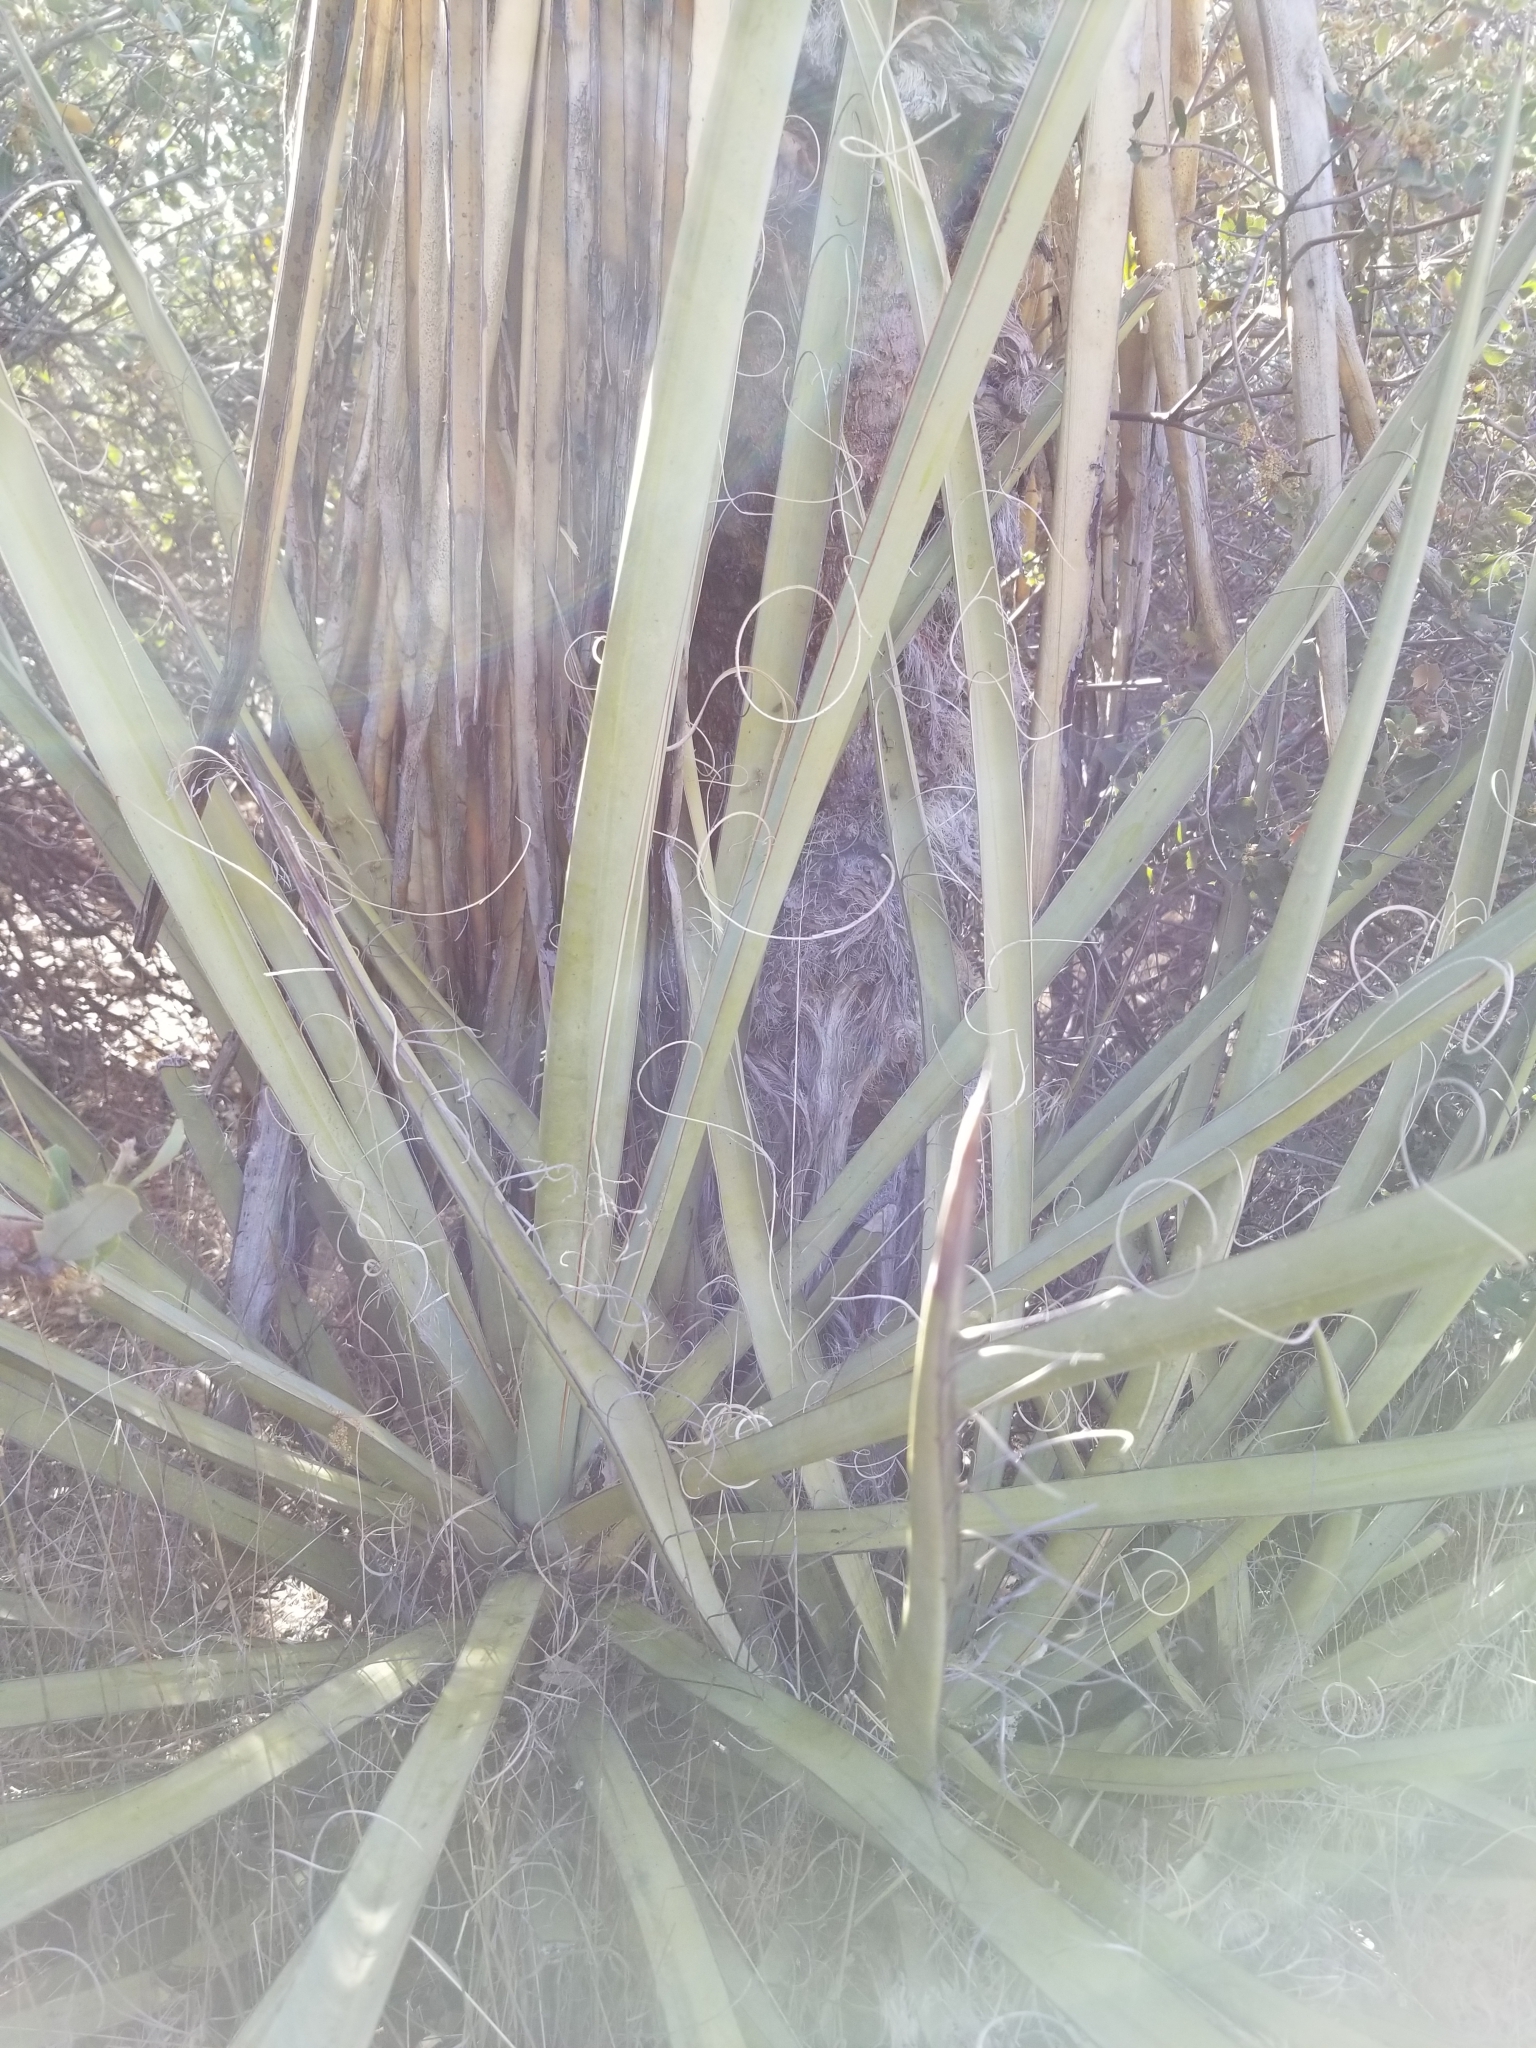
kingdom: Plantae
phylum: Tracheophyta
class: Liliopsida
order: Asparagales
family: Asparagaceae
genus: Yucca
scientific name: Yucca schidigera
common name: Mojave yucca
